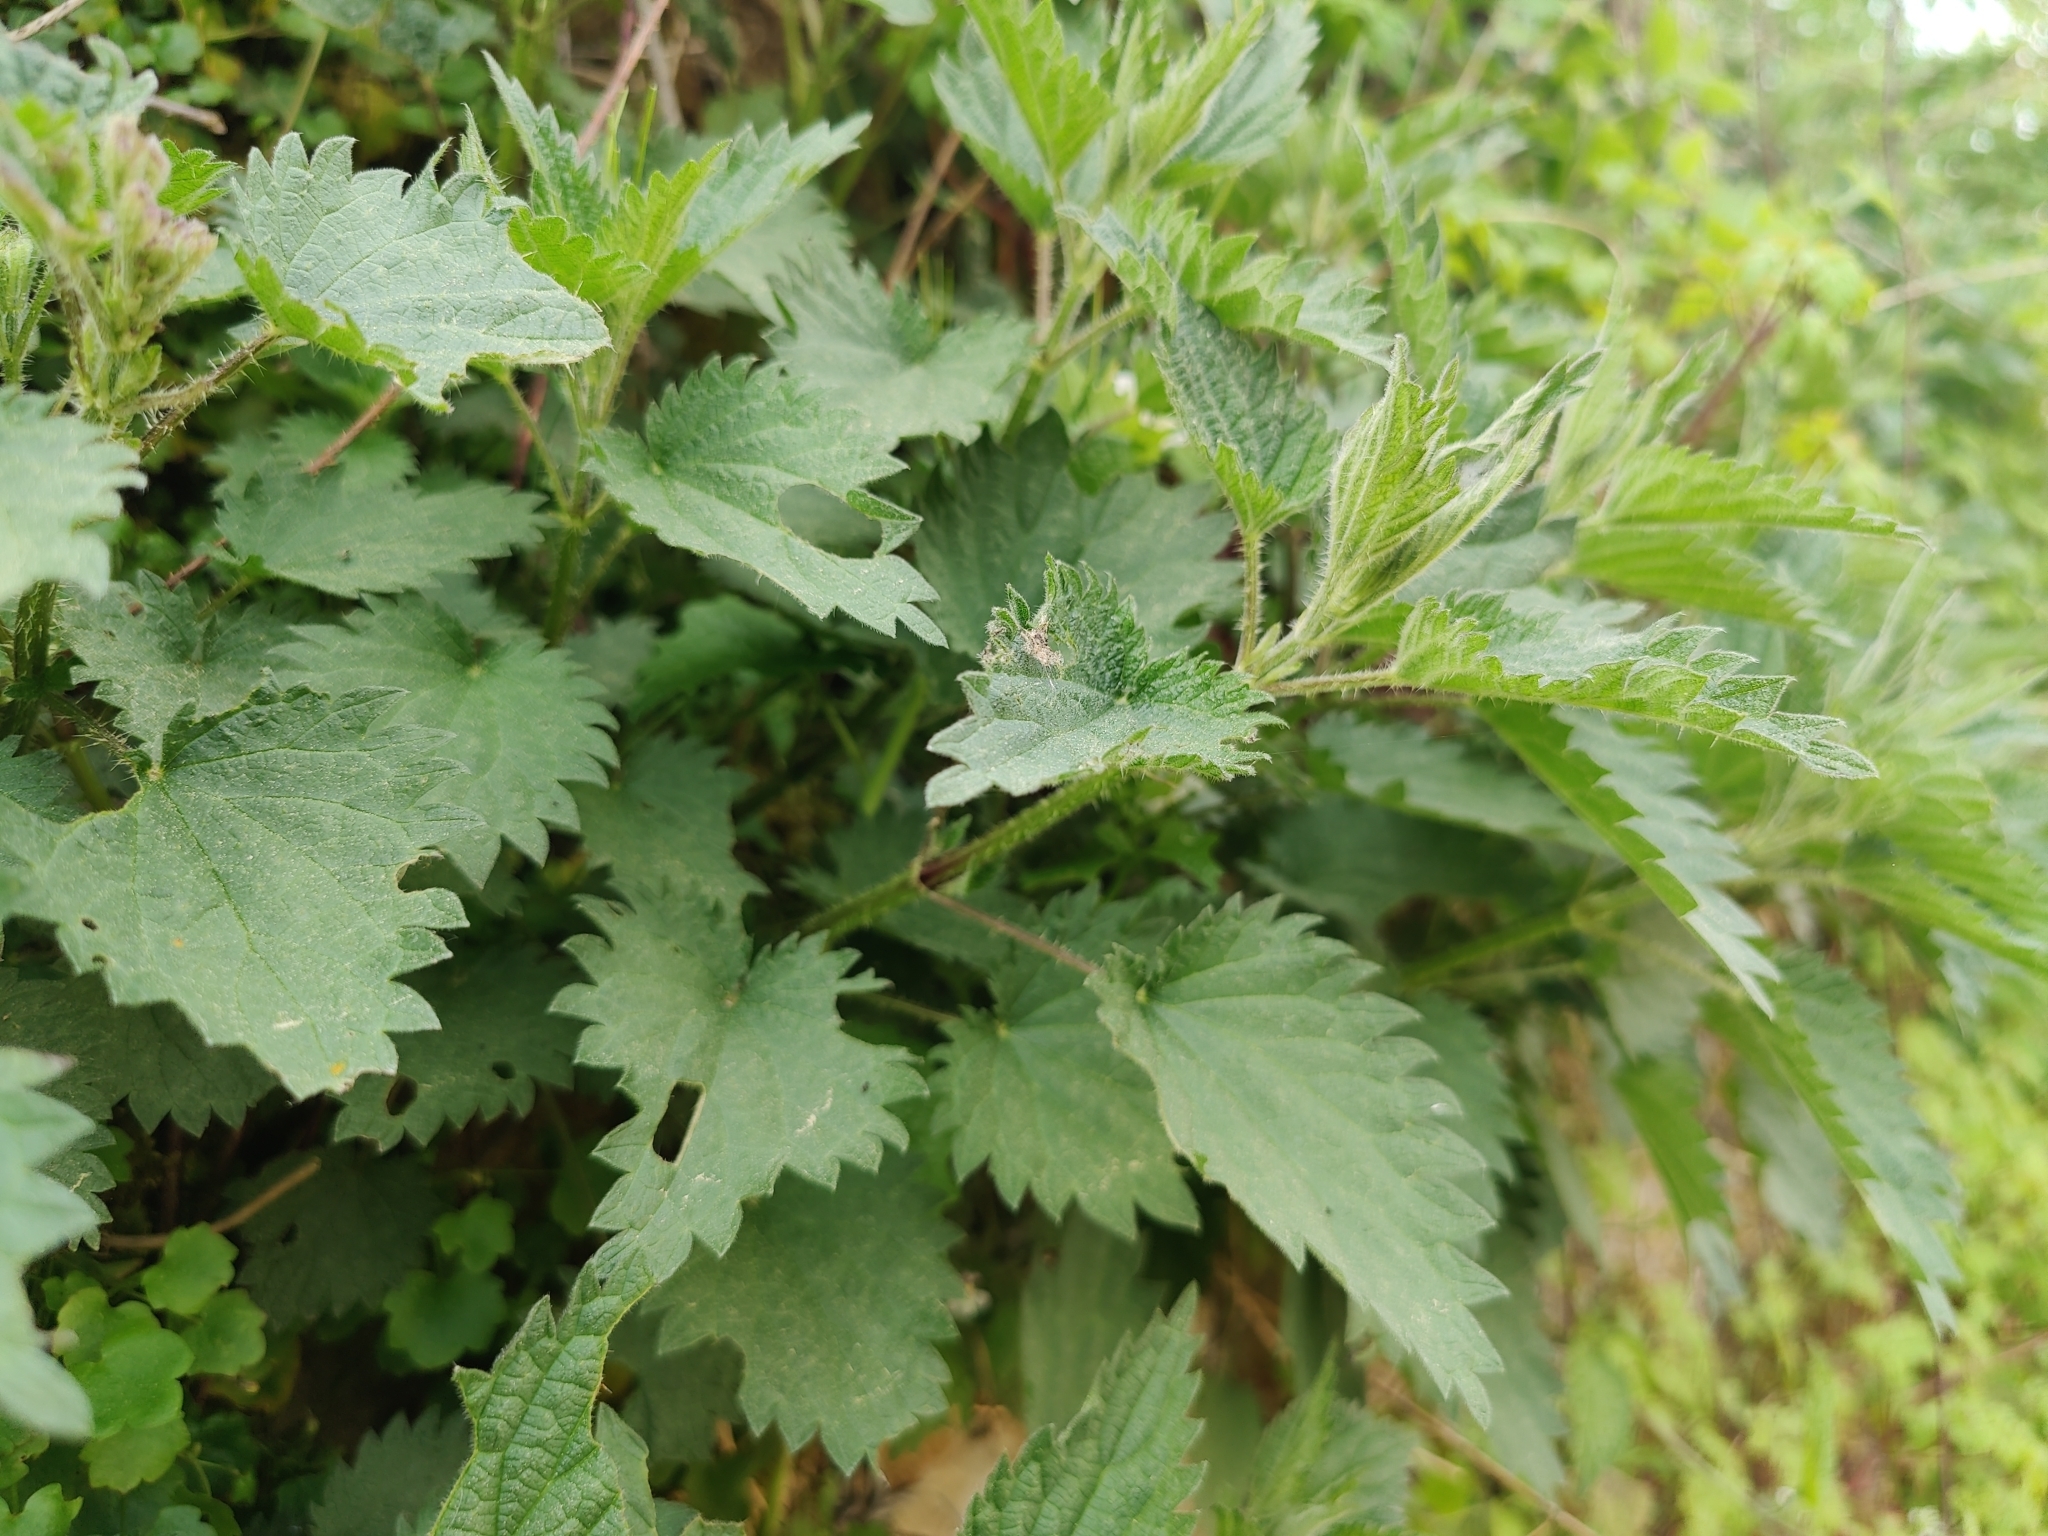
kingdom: Plantae
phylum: Tracheophyta
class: Magnoliopsida
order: Rosales
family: Urticaceae
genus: Urtica
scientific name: Urtica dioica
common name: Common nettle
